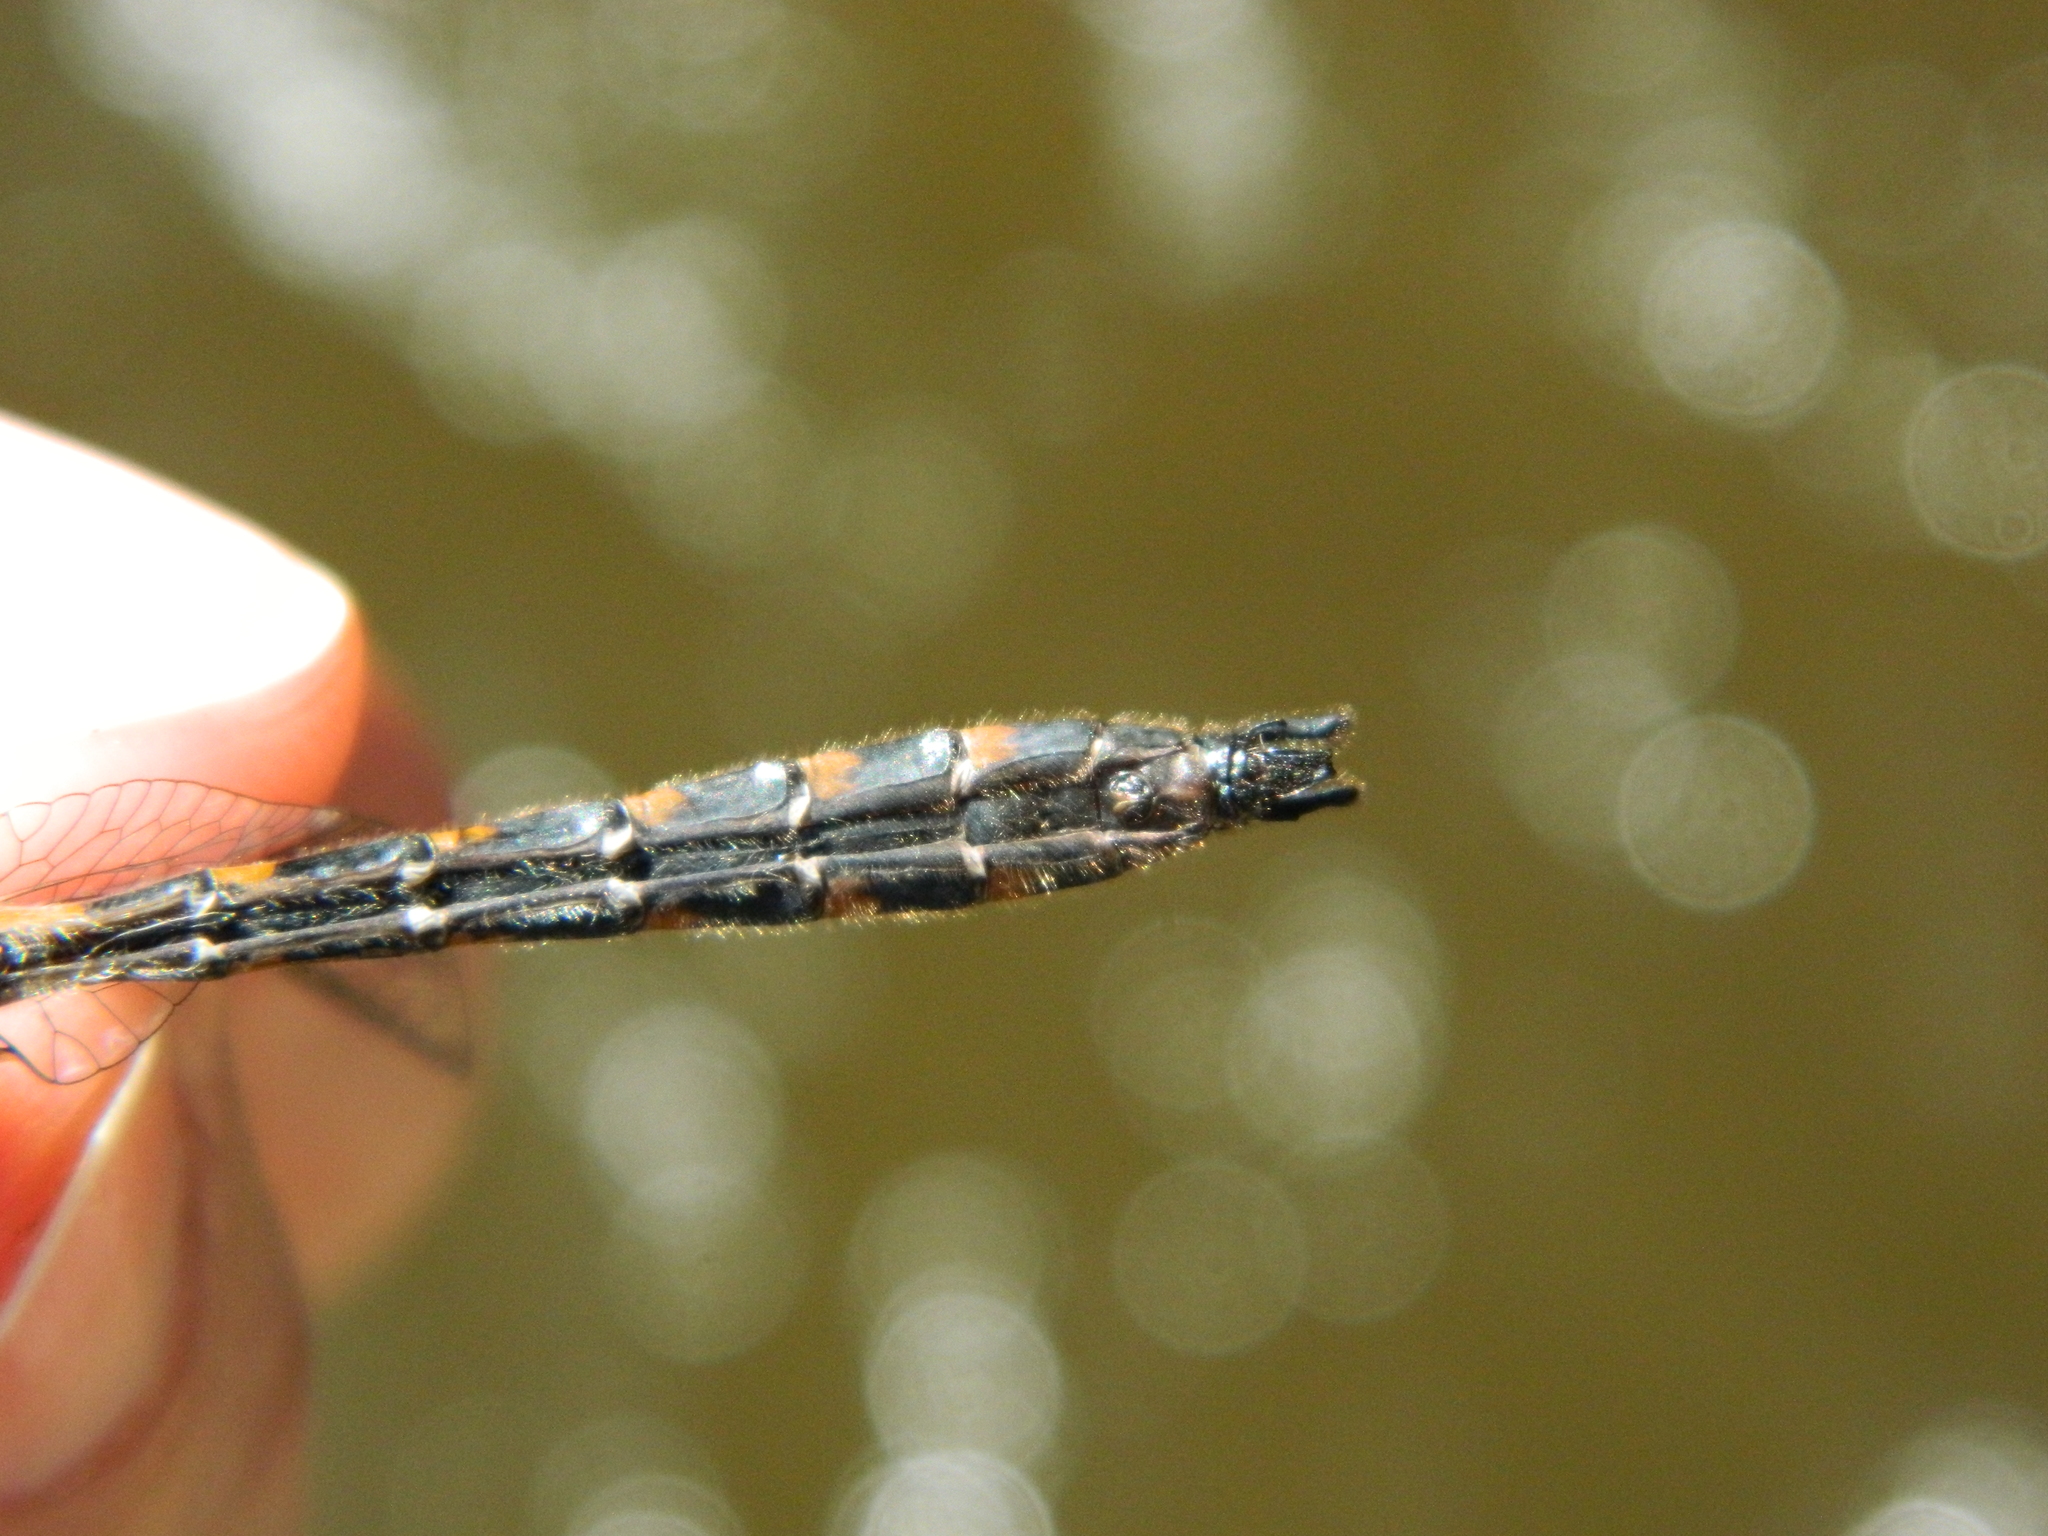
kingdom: Animalia
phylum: Arthropoda
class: Insecta
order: Odonata
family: Corduliidae
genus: Helocordulia
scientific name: Helocordulia uhleri
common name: Uhler's sundragon
